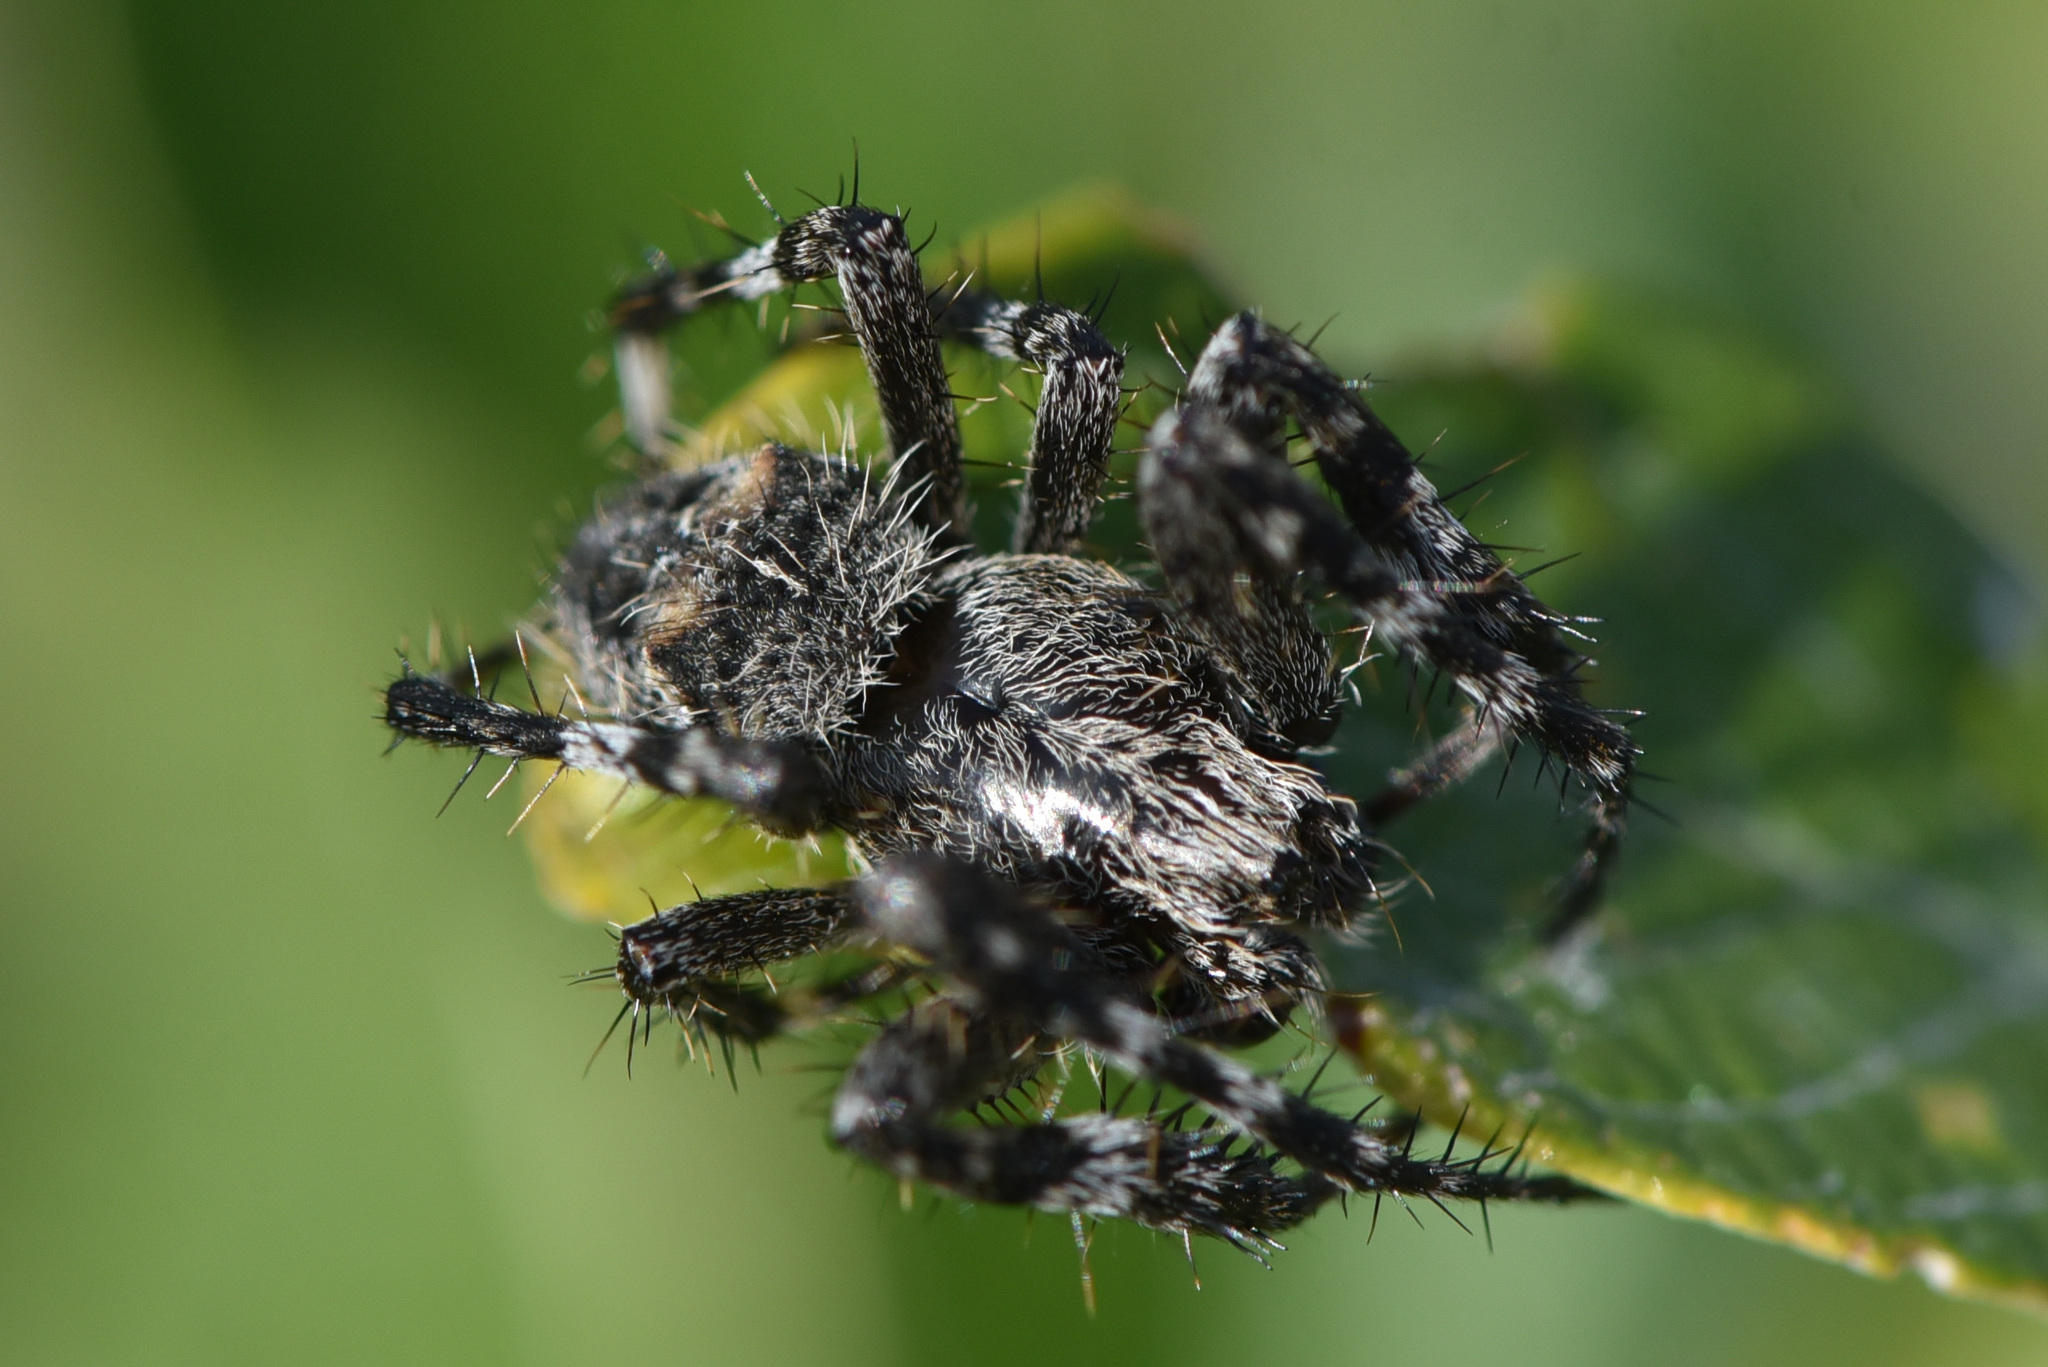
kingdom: Animalia
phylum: Arthropoda
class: Arachnida
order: Araneae
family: Araneidae
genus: Araneus
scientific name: Araneus saevus
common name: Fierce orbweaver
